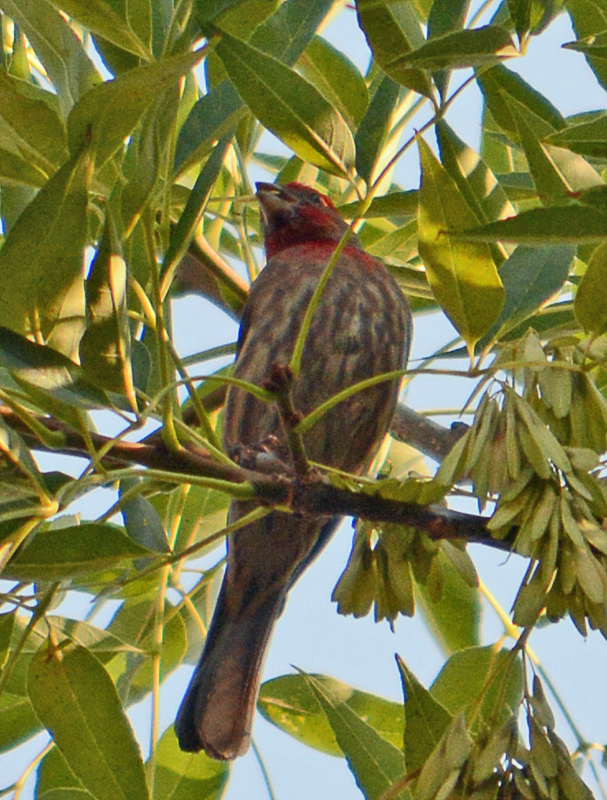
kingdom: Animalia
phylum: Chordata
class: Aves
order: Passeriformes
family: Fringillidae
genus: Haemorhous
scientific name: Haemorhous mexicanus
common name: House finch
